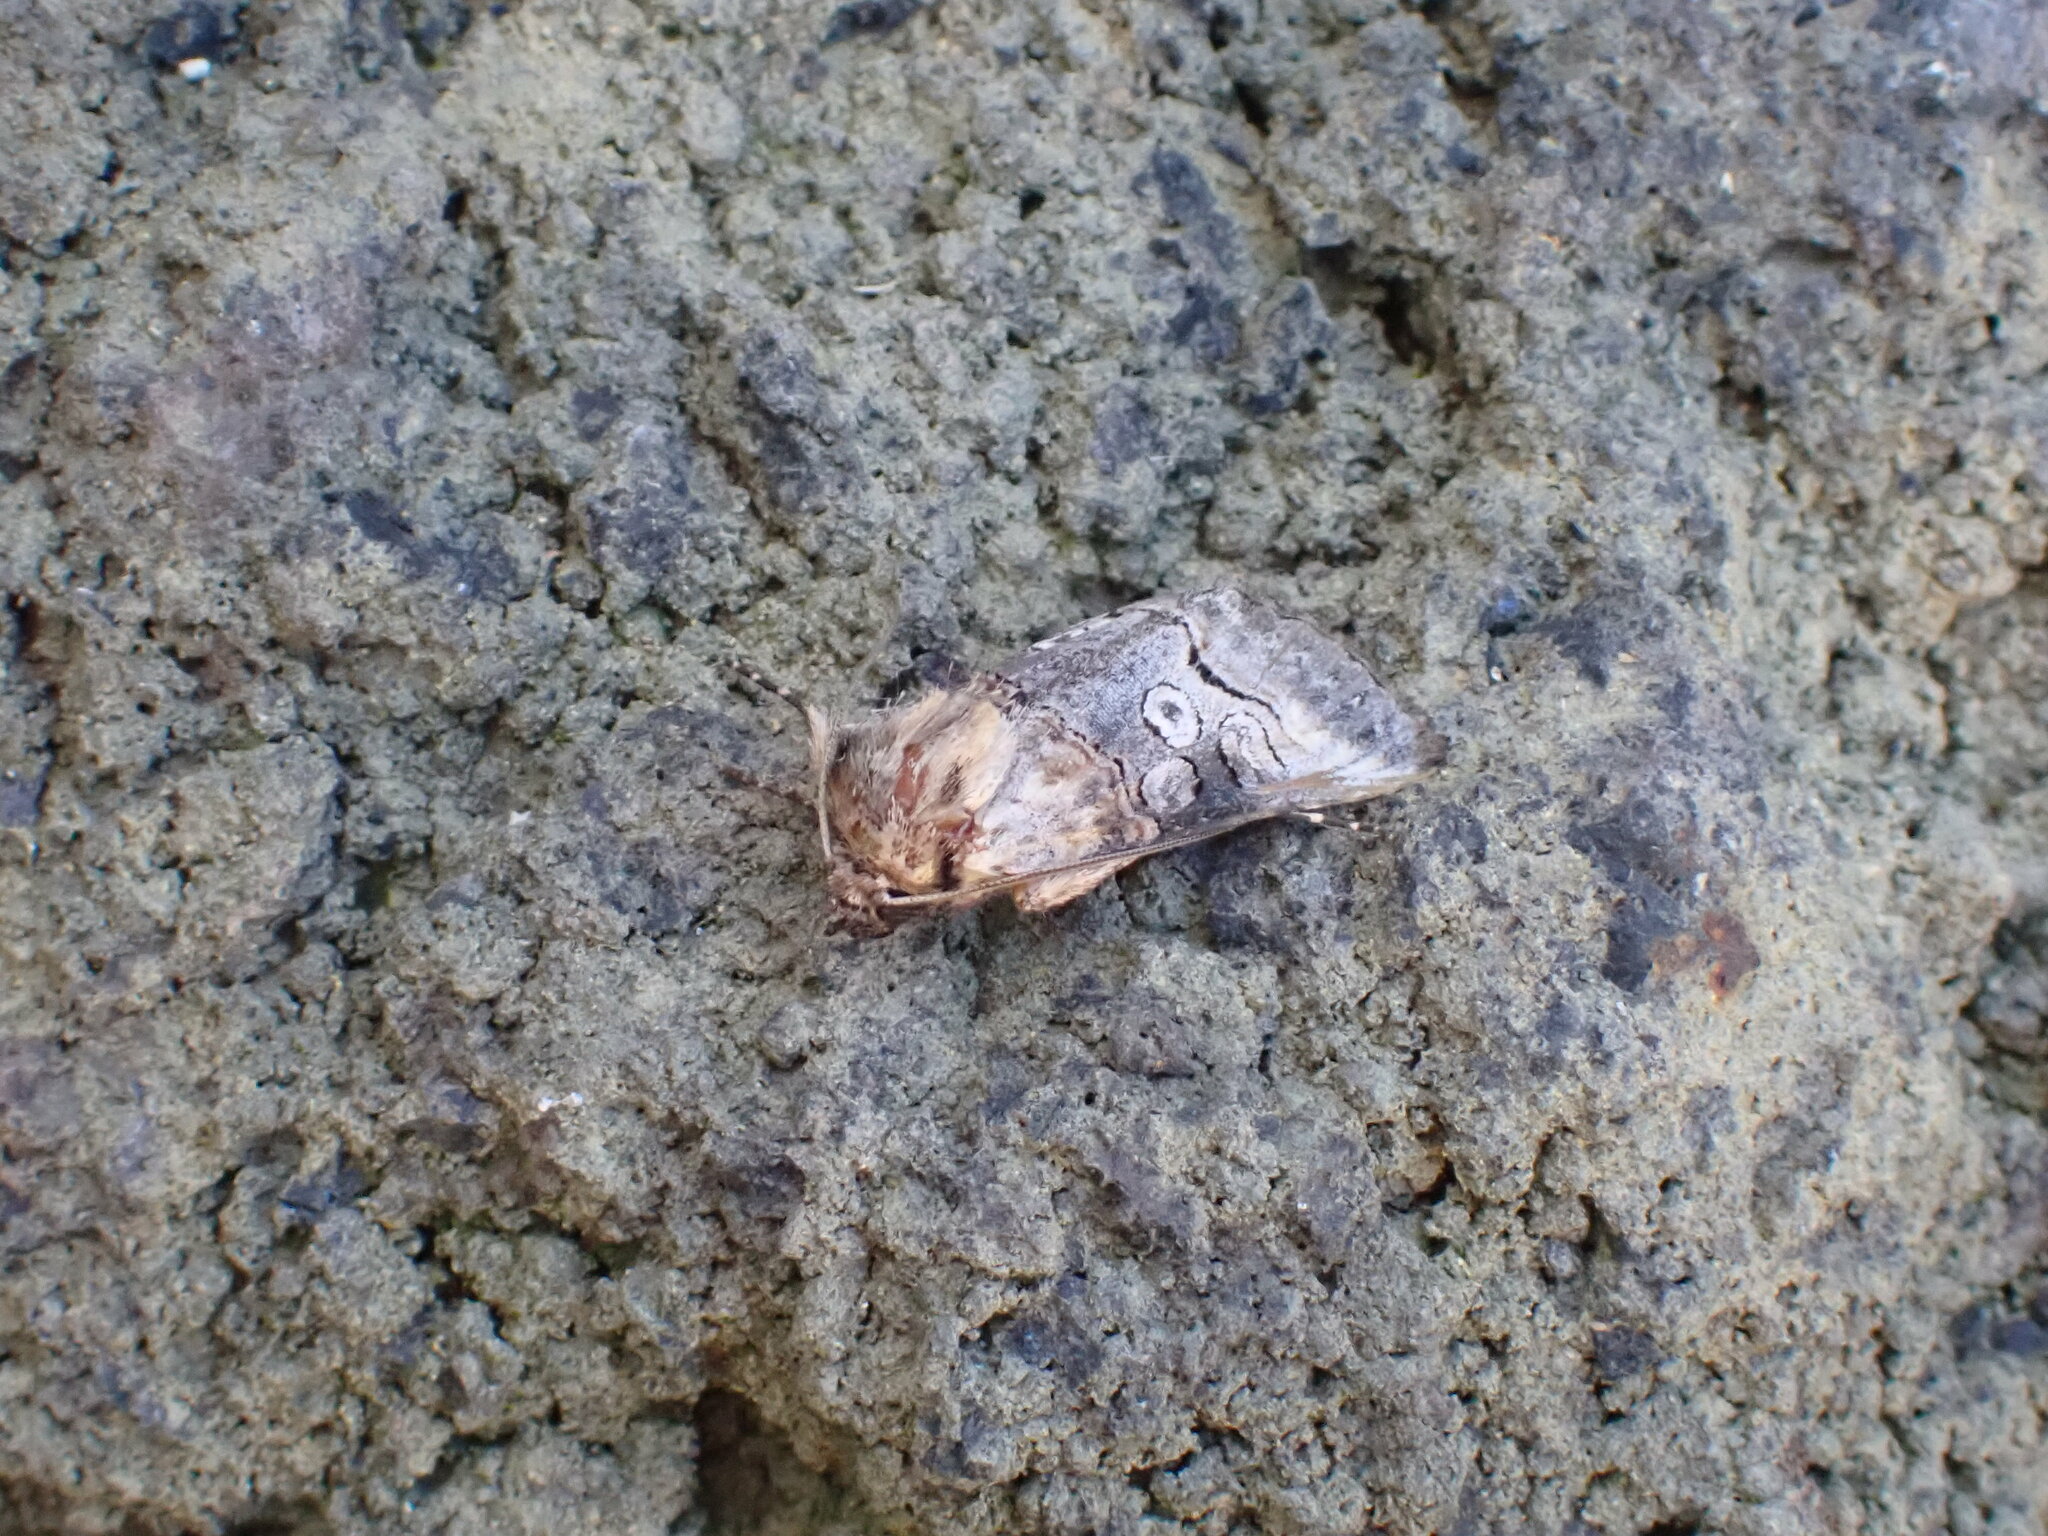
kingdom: Animalia
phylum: Arthropoda
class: Insecta
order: Lepidoptera
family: Noctuidae
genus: Abrostola
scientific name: Abrostola canariensis
